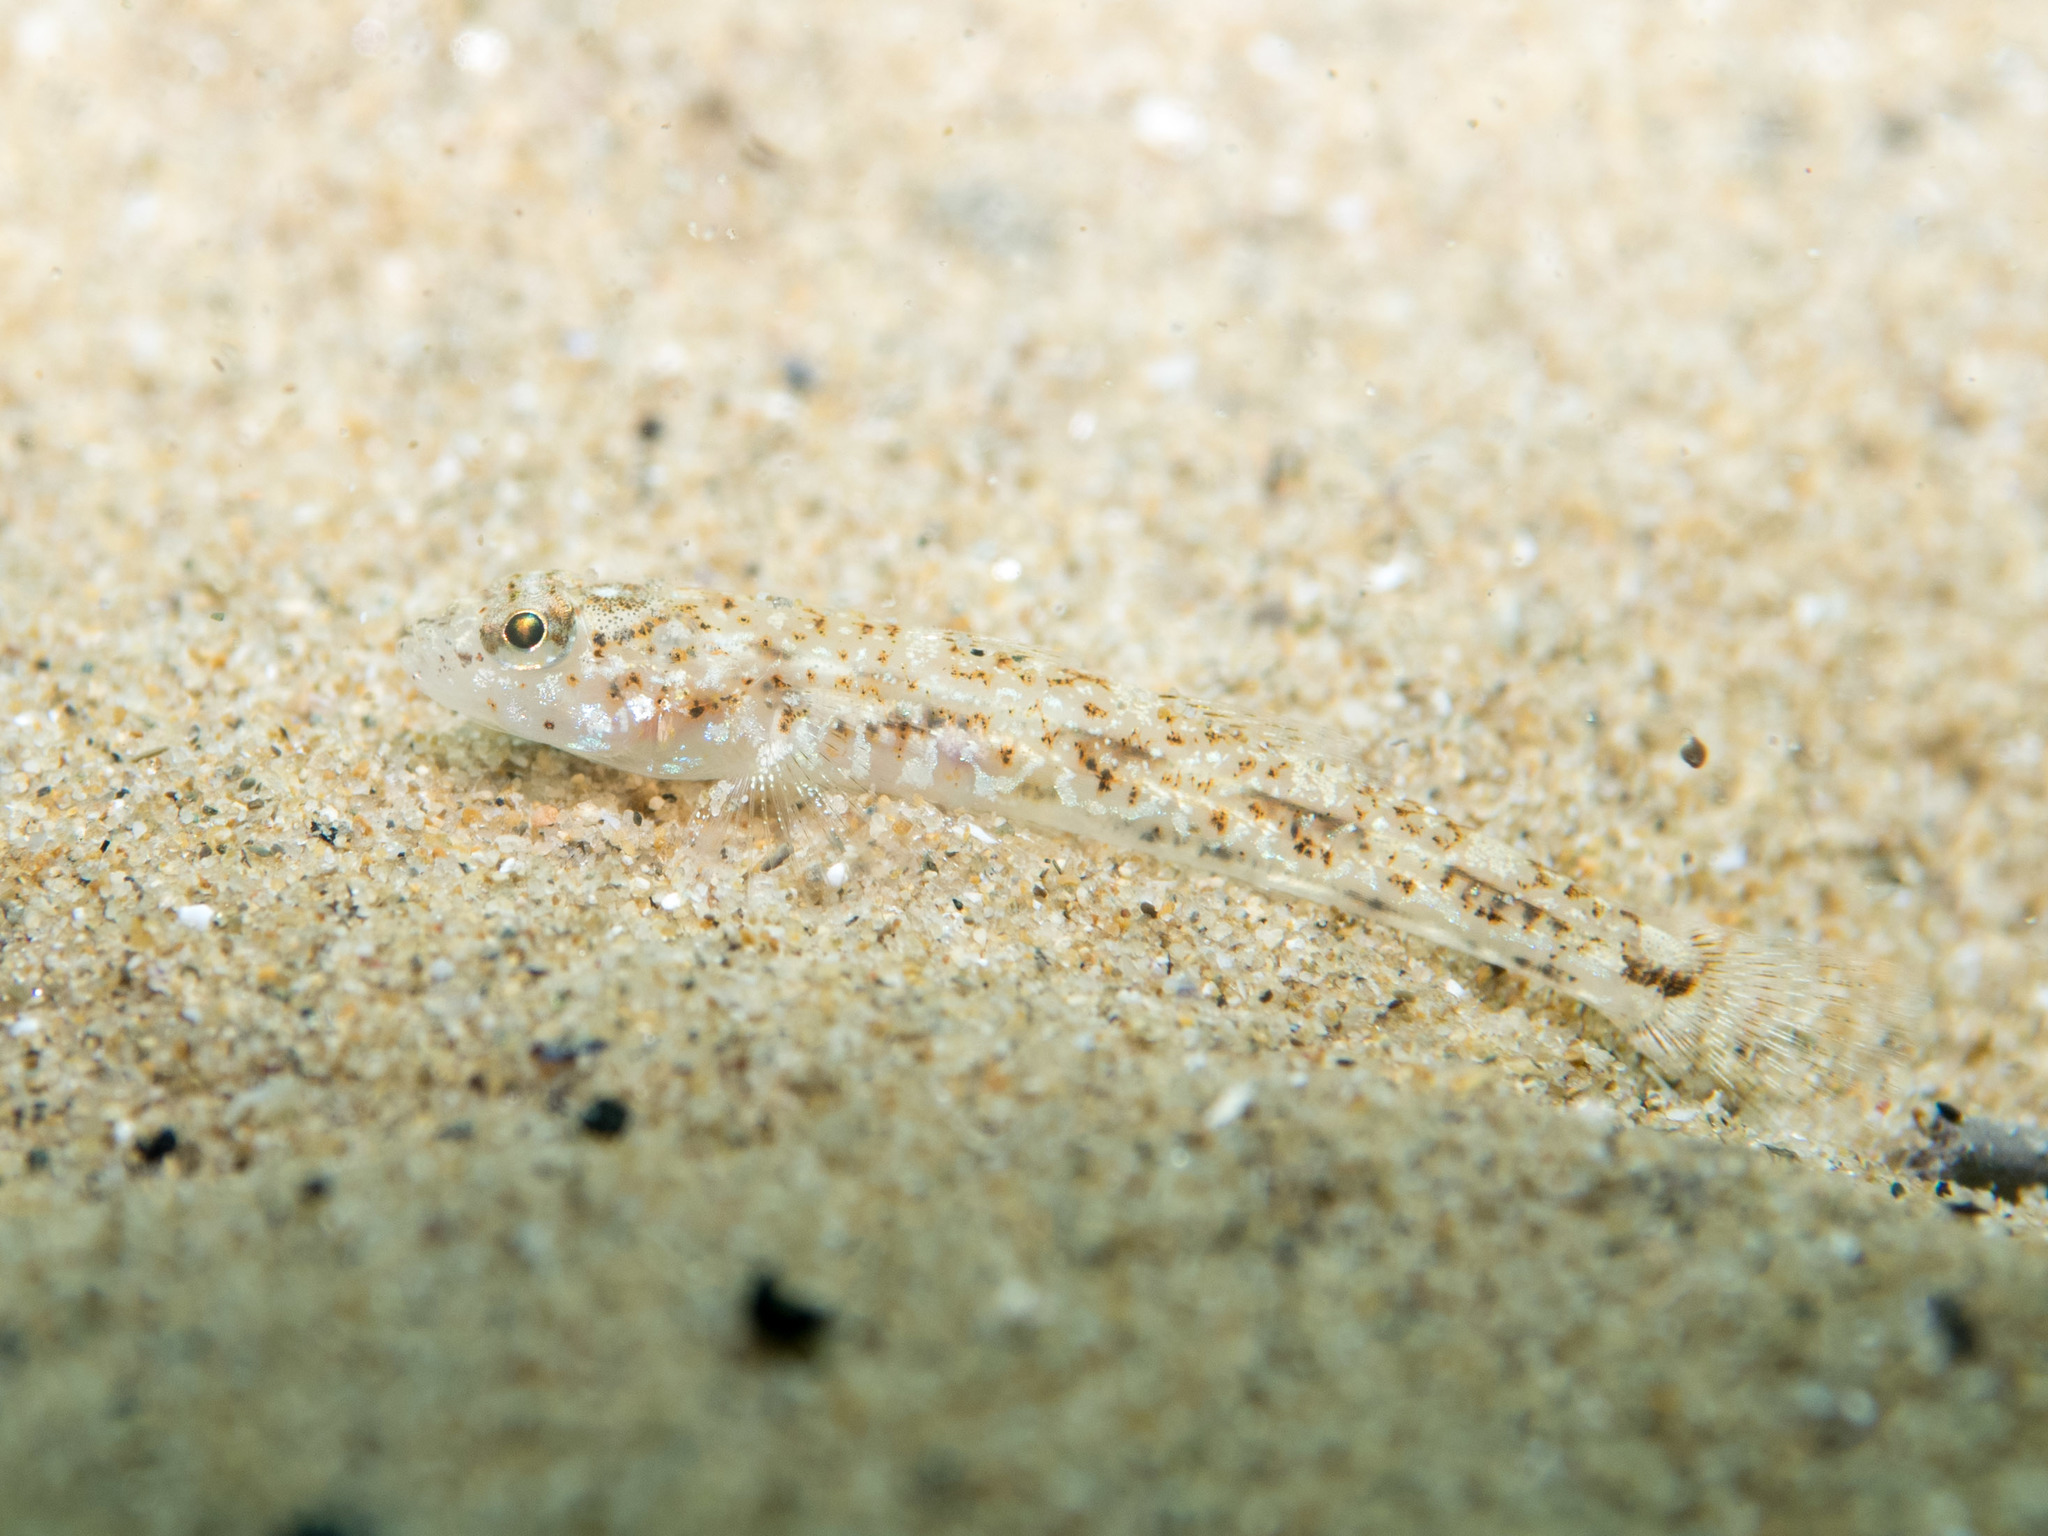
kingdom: Animalia
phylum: Chordata
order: Perciformes
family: Gobiidae
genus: Pomatoschistus
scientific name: Pomatoschistus marmoratus
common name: Marbled goby
